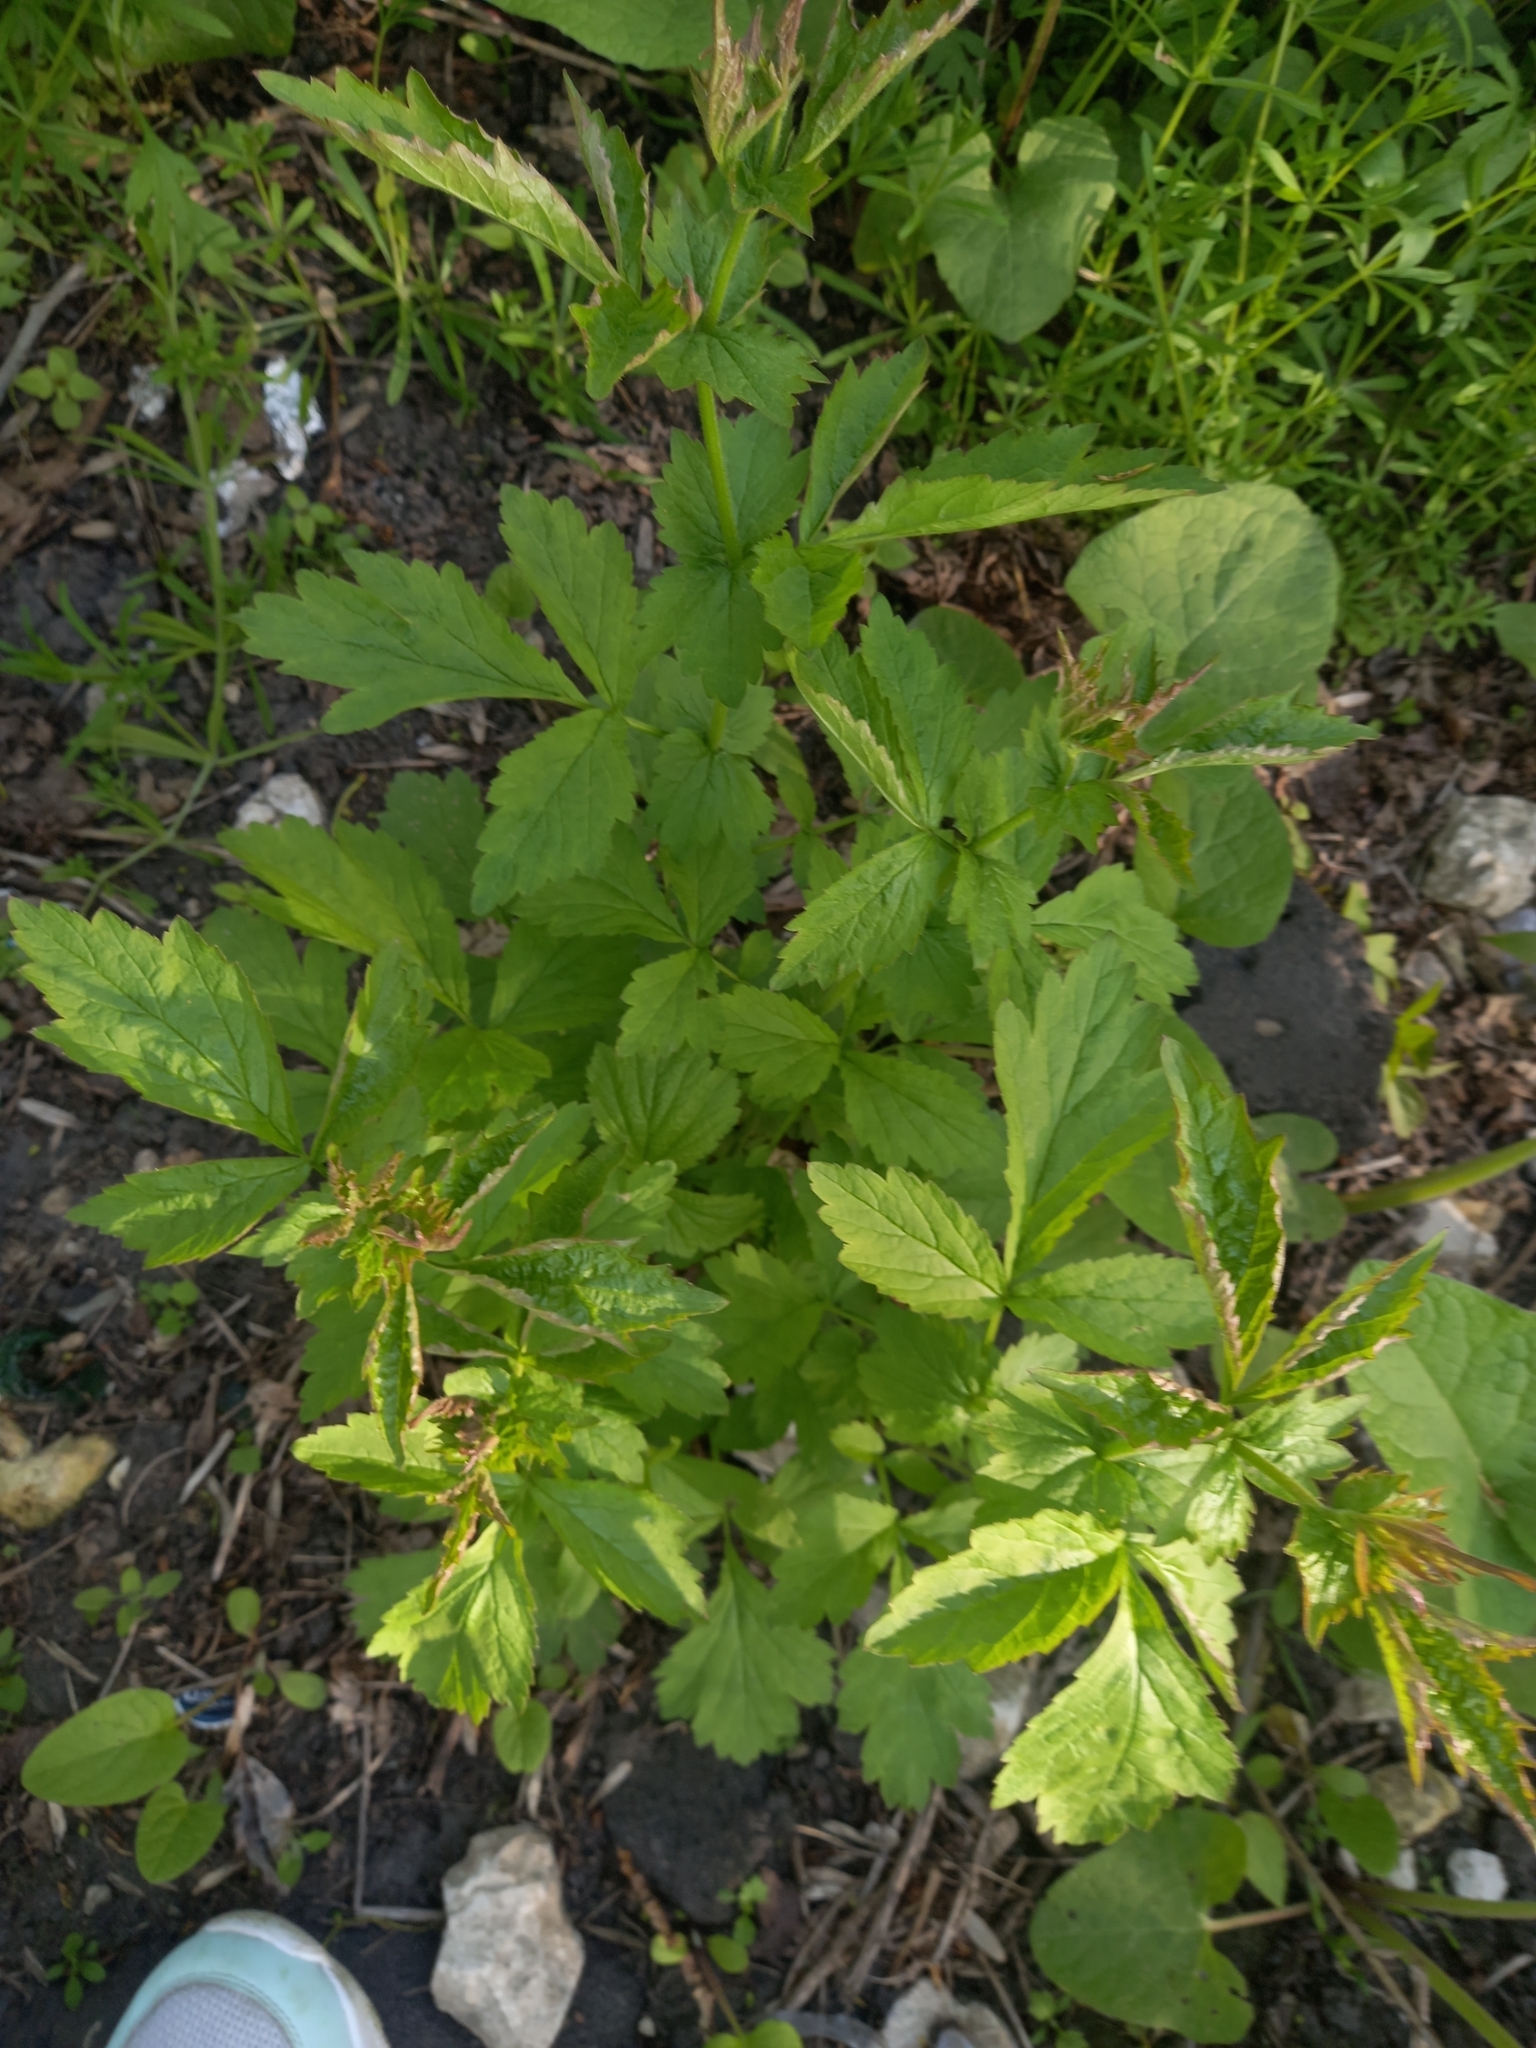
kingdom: Plantae
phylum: Tracheophyta
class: Magnoliopsida
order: Rosales
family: Rosaceae
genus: Geum
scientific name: Geum urbanum
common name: Wood avens
